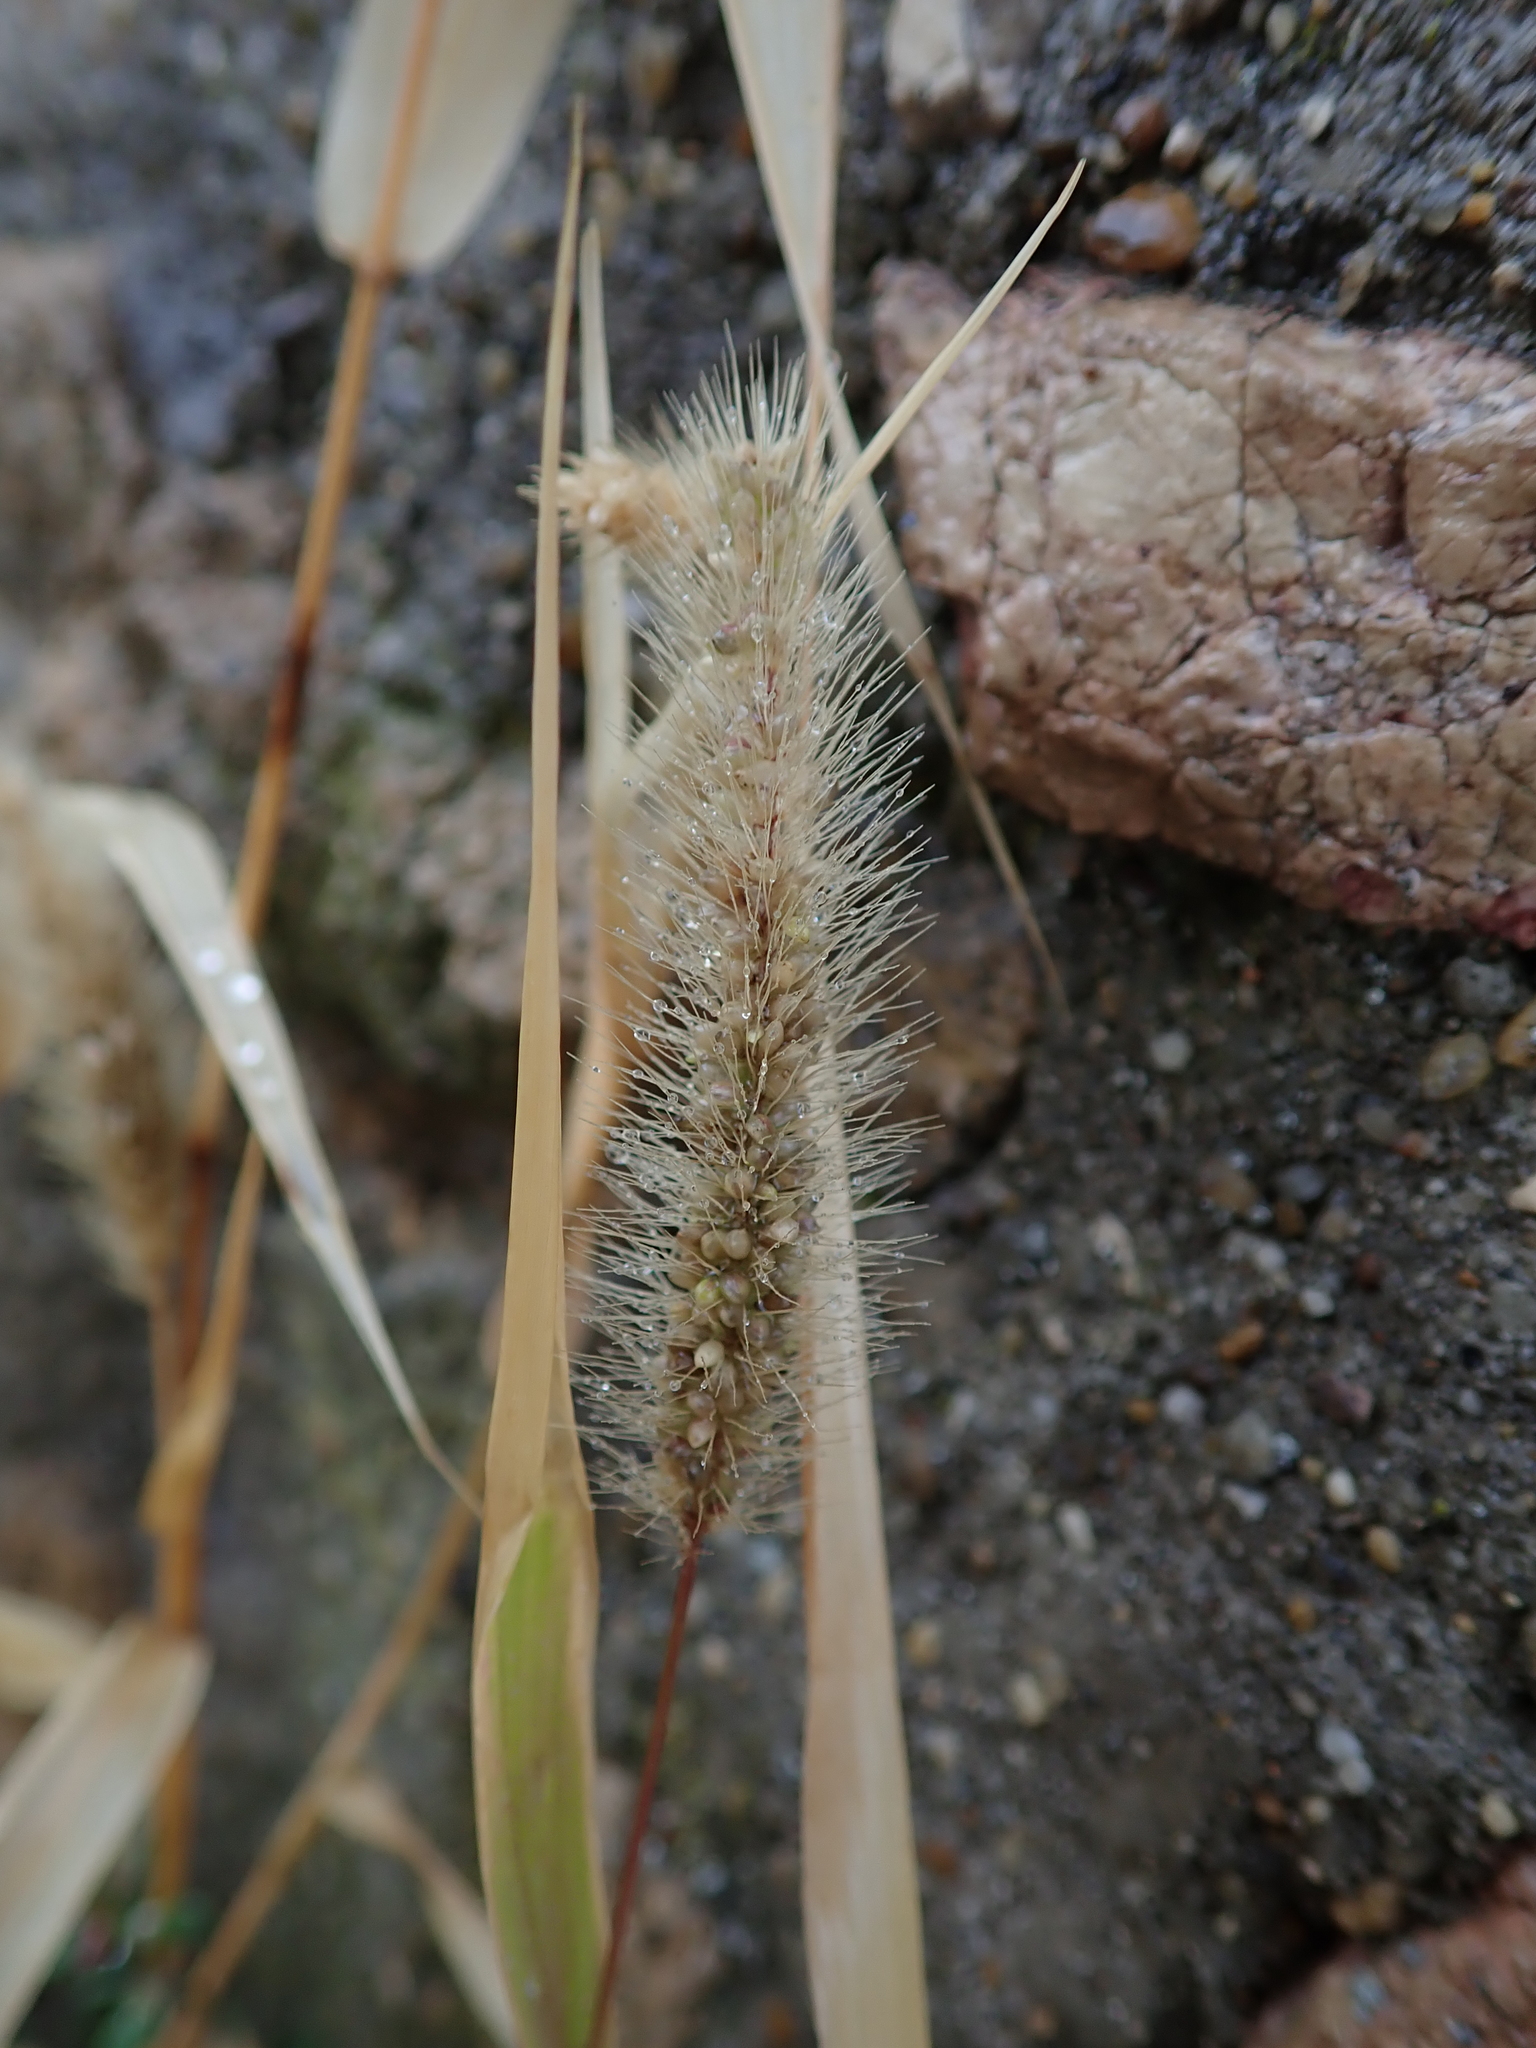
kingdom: Plantae
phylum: Tracheophyta
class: Liliopsida
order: Poales
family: Poaceae
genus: Setaria
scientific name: Setaria viridis
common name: Green bristlegrass
